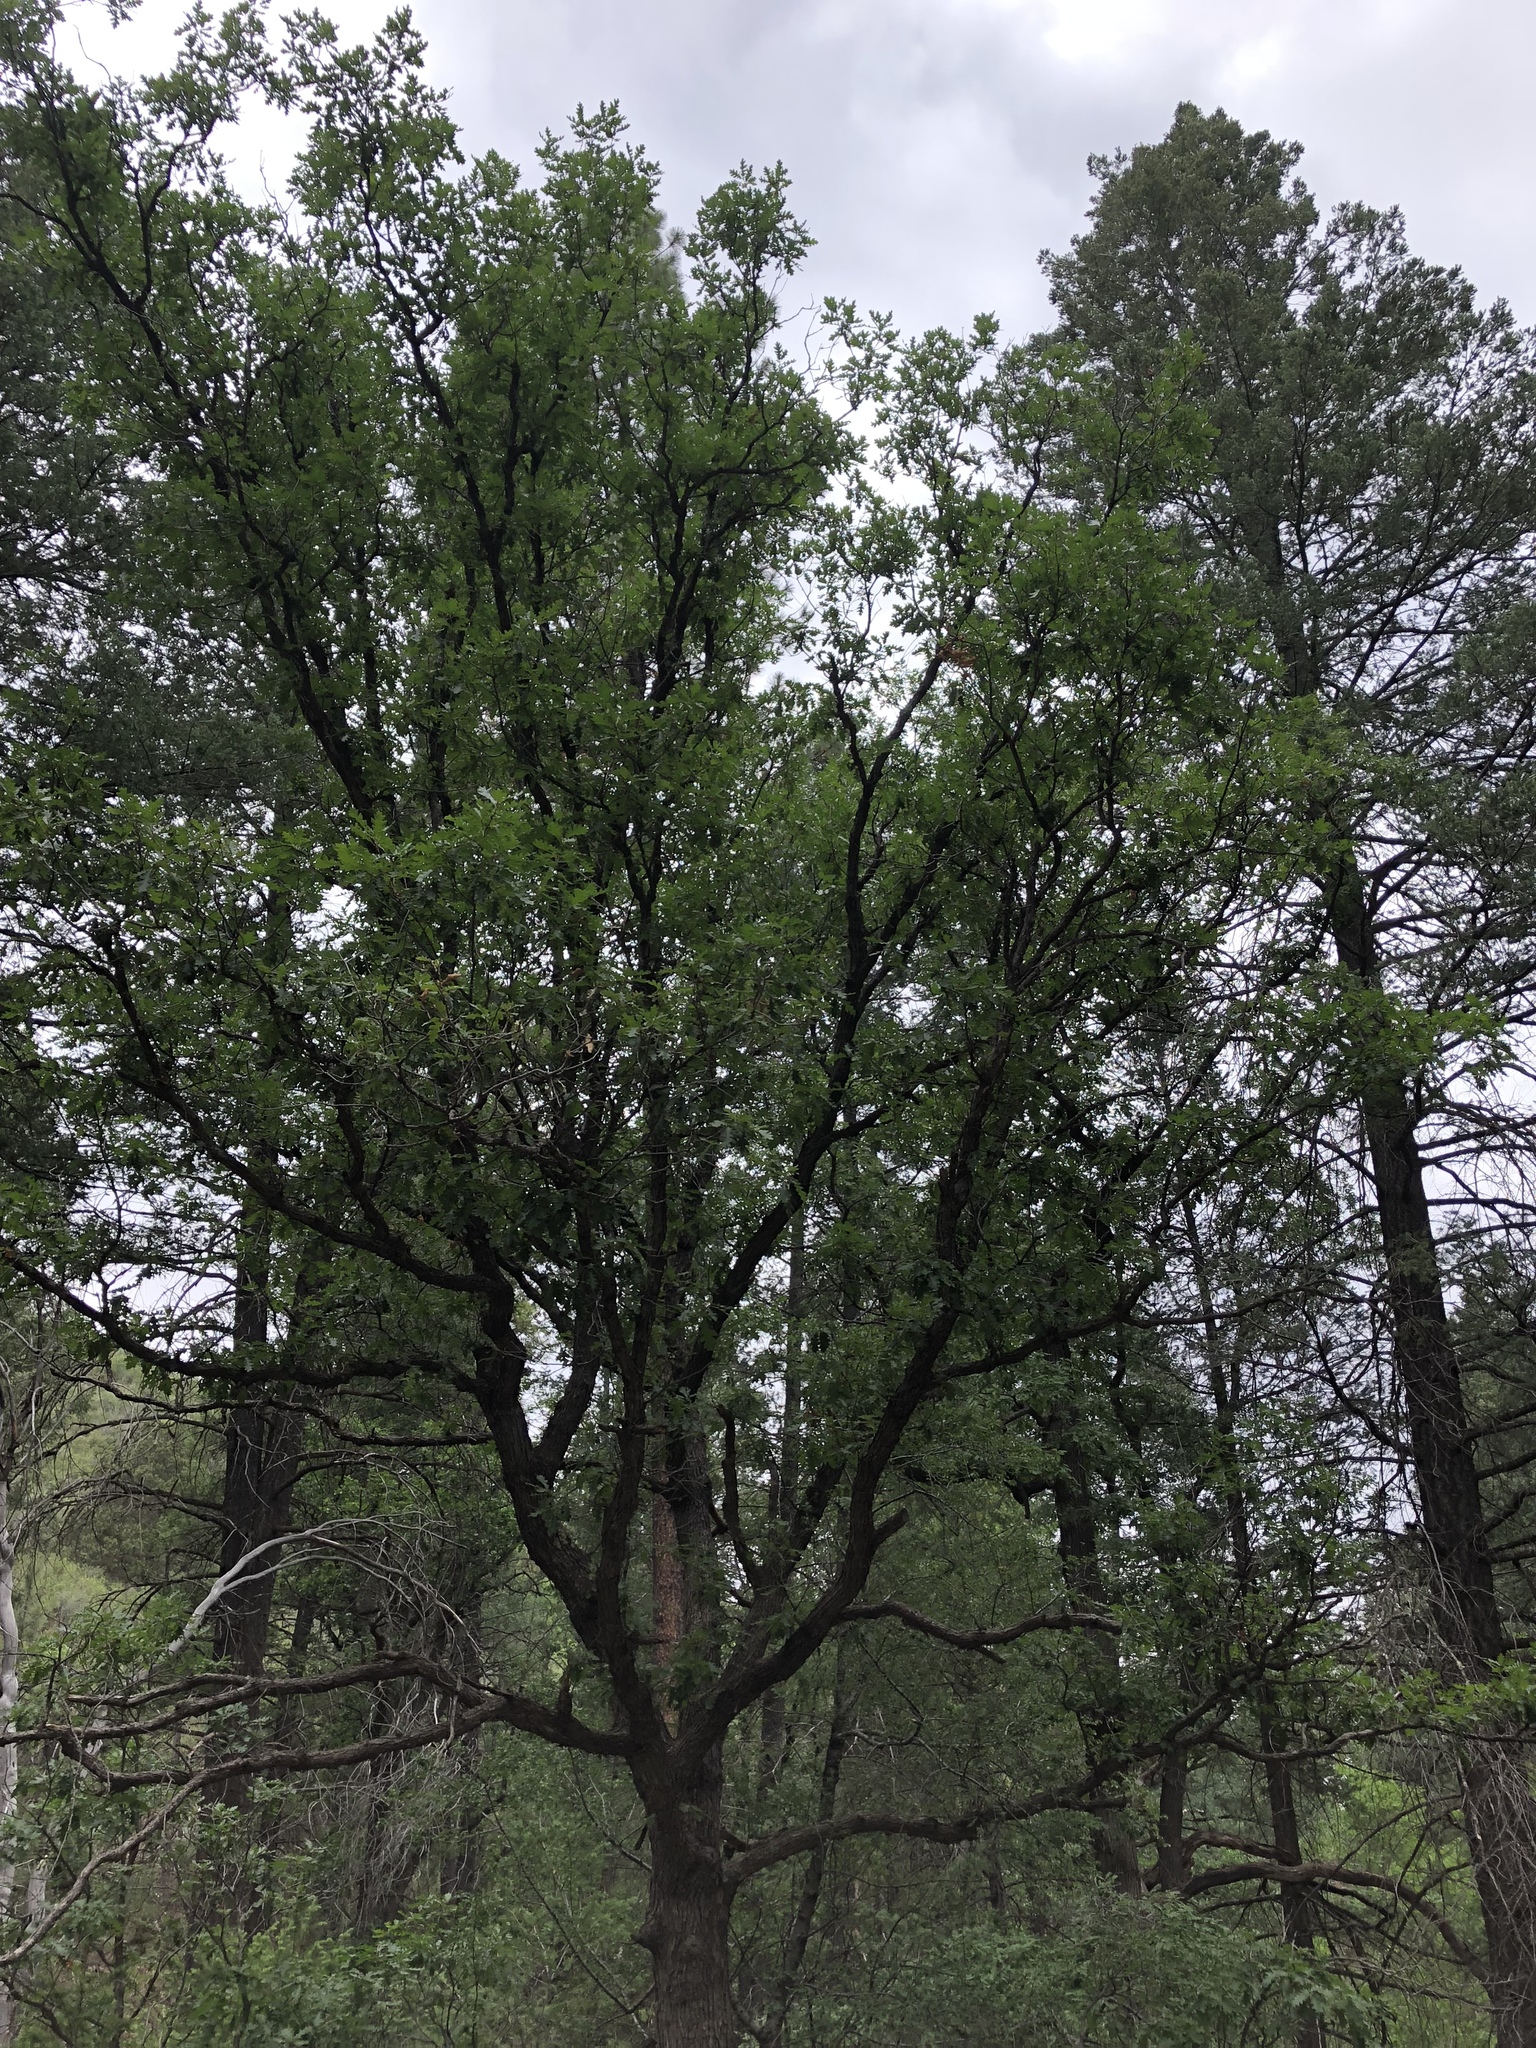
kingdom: Plantae
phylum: Tracheophyta
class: Magnoliopsida
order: Fagales
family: Fagaceae
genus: Quercus
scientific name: Quercus gambelii
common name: Gambel oak
